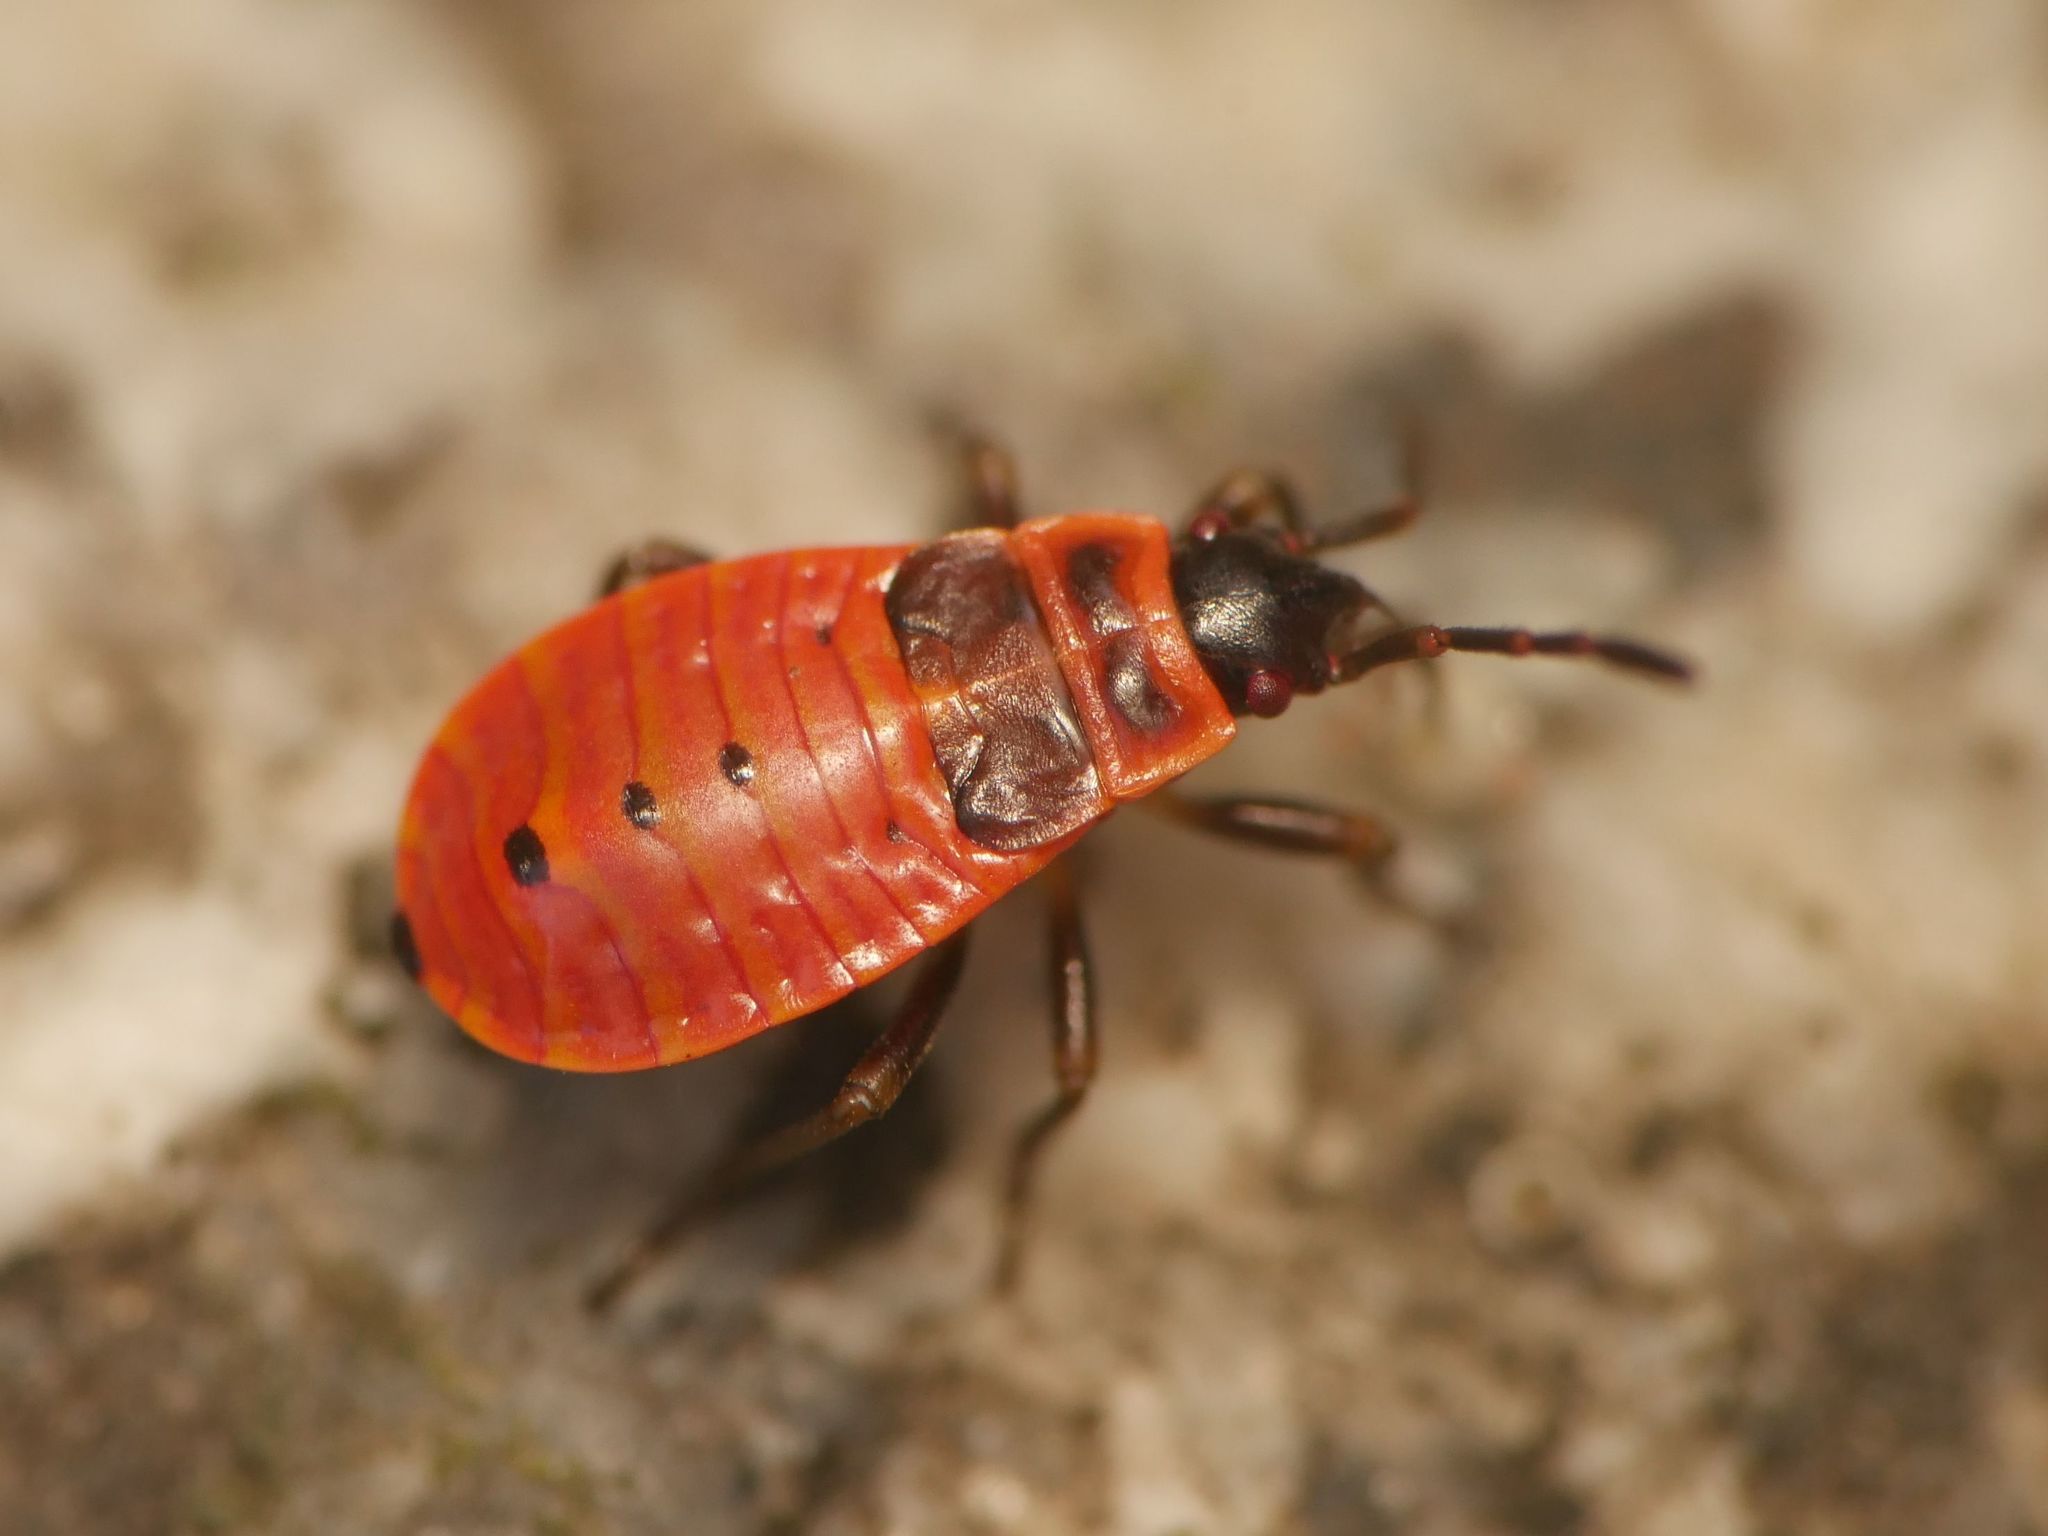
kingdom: Animalia
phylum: Arthropoda
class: Insecta
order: Hemiptera
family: Pyrrhocoridae
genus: Pyrrhocoris
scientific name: Pyrrhocoris apterus
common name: Firebug
